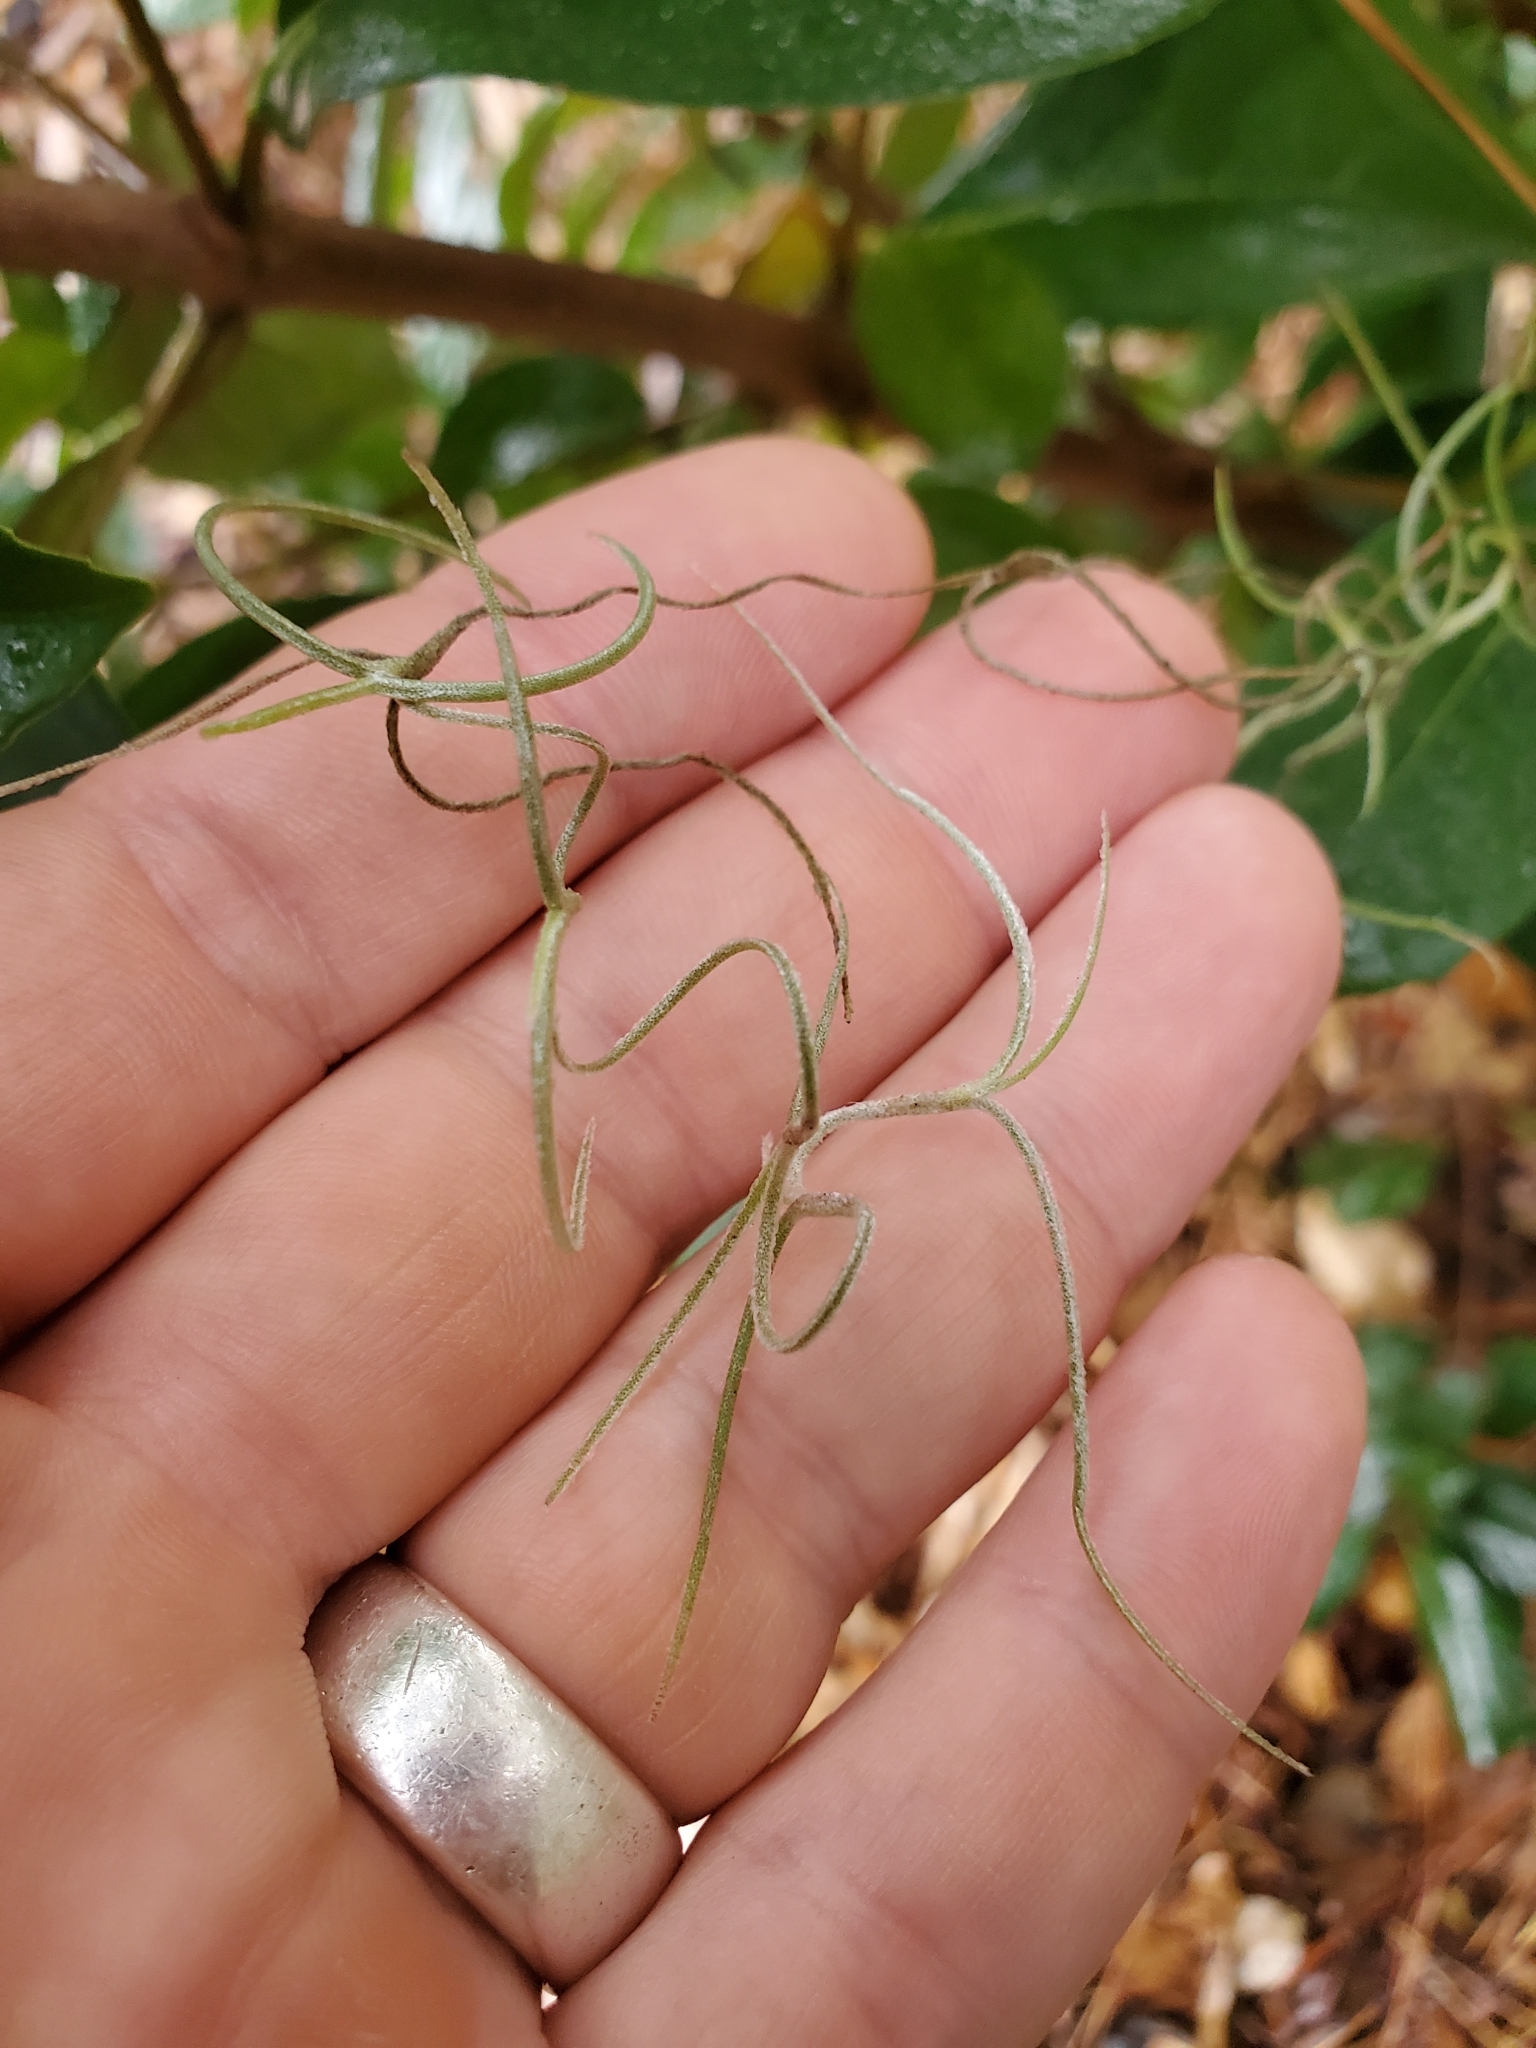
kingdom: Plantae
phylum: Tracheophyta
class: Liliopsida
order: Poales
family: Bromeliaceae
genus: Tillandsia
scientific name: Tillandsia usneoides
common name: Spanish moss
